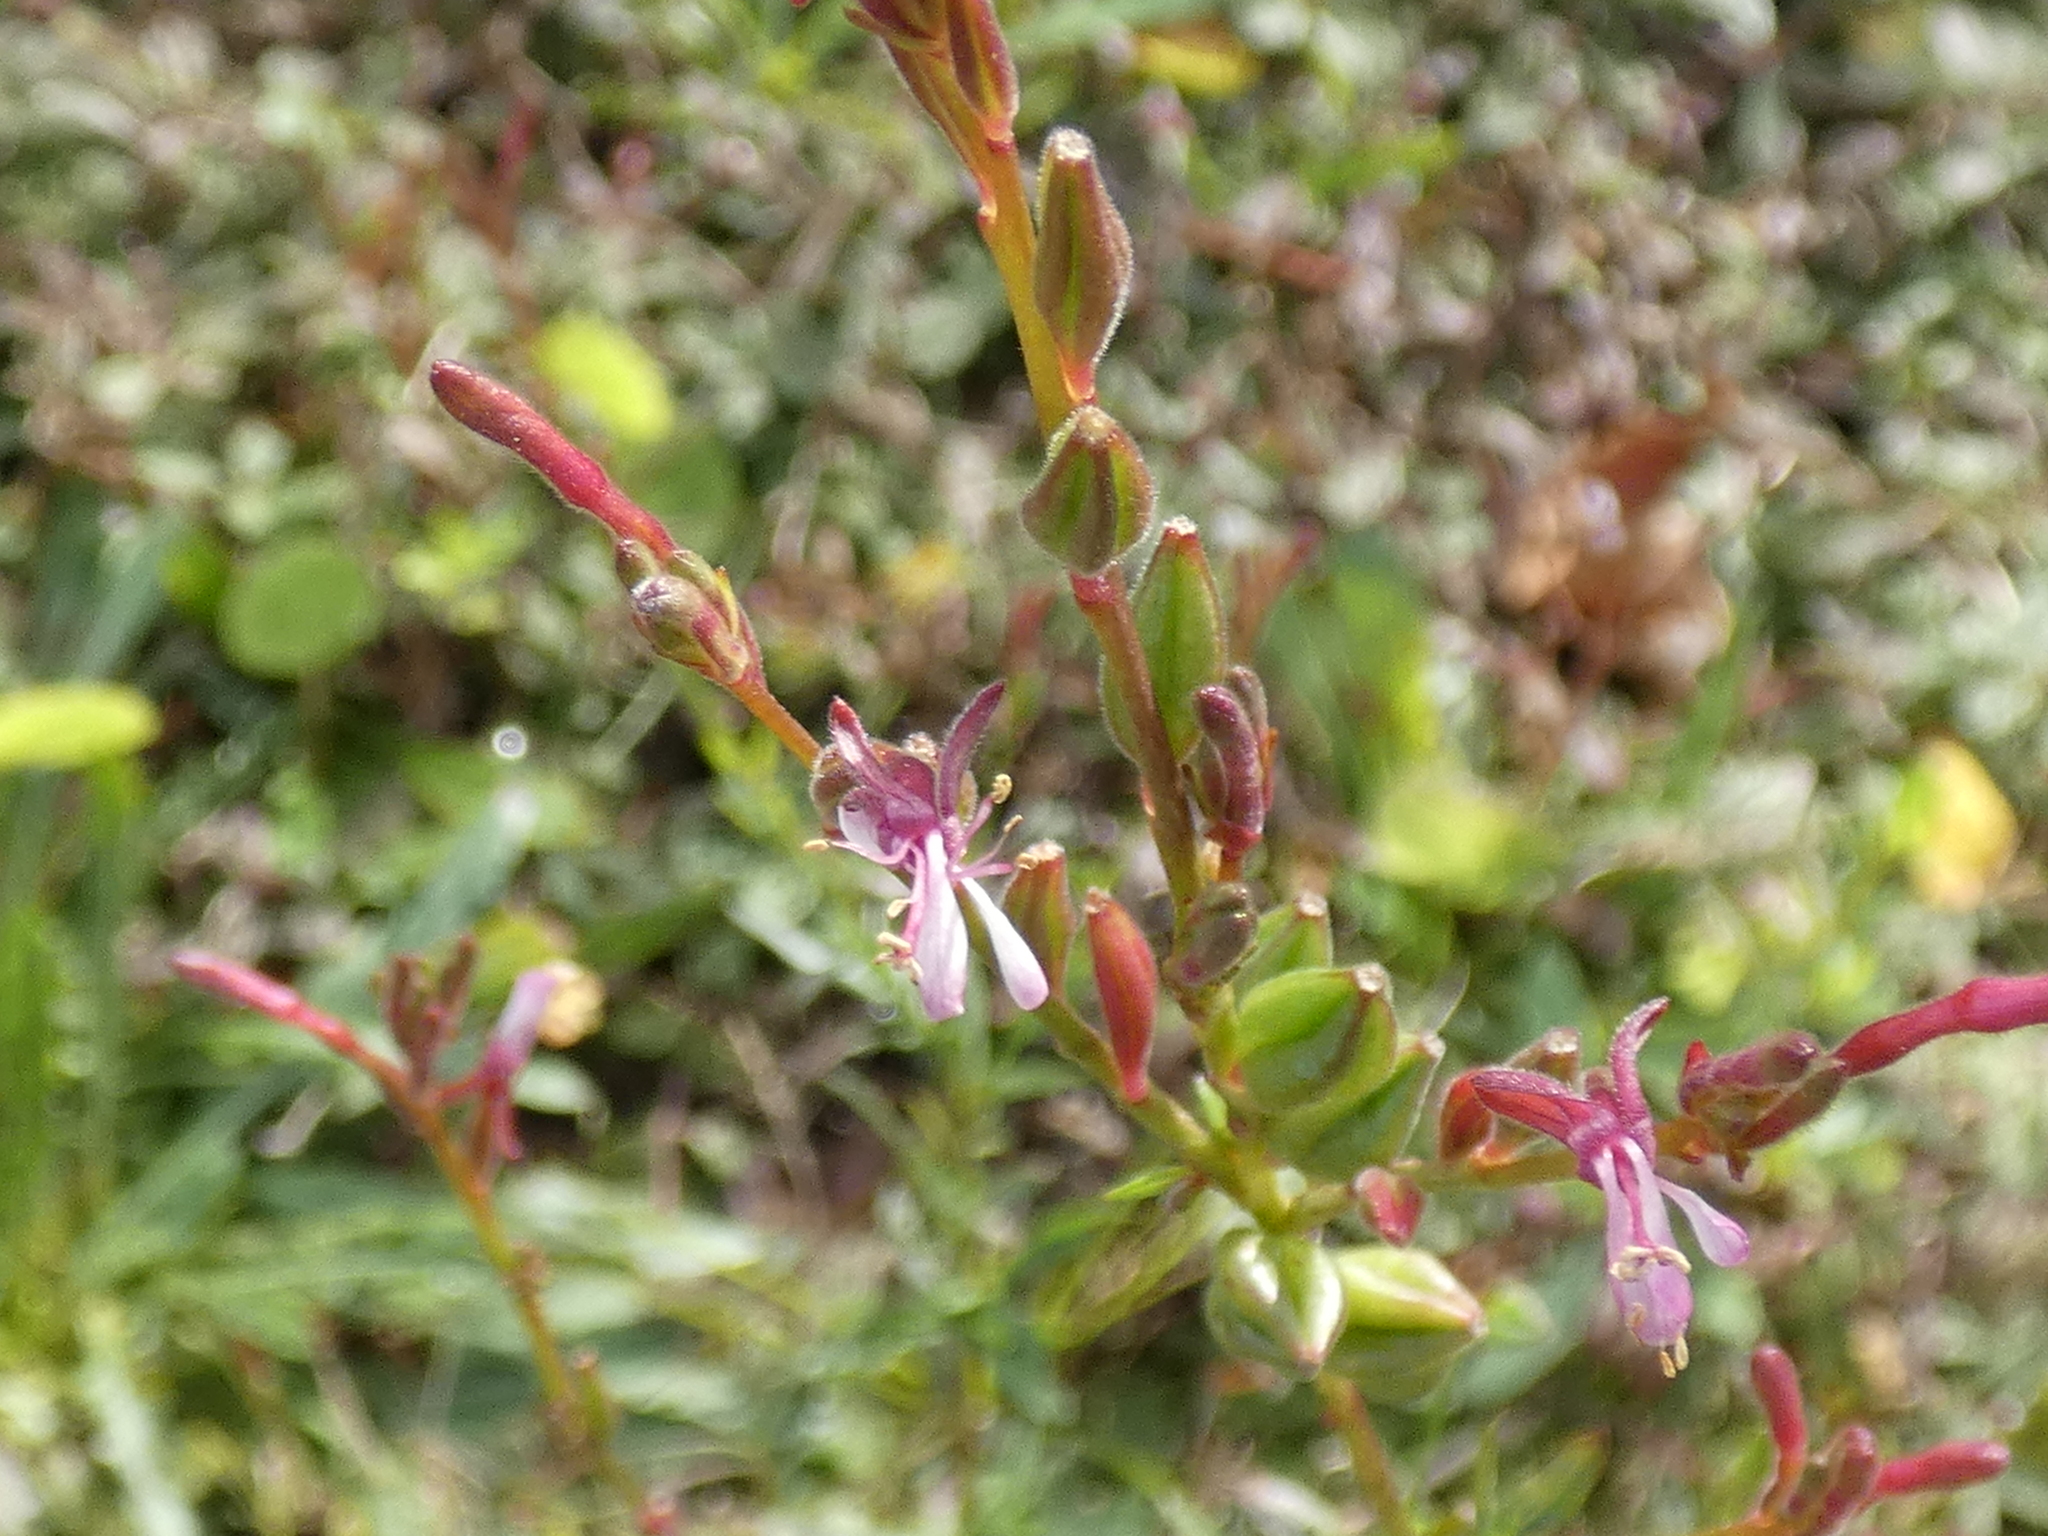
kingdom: Plantae
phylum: Tracheophyta
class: Magnoliopsida
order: Myrtales
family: Onagraceae
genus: Oenothera
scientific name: Oenothera simulans
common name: Southern beeblossom
